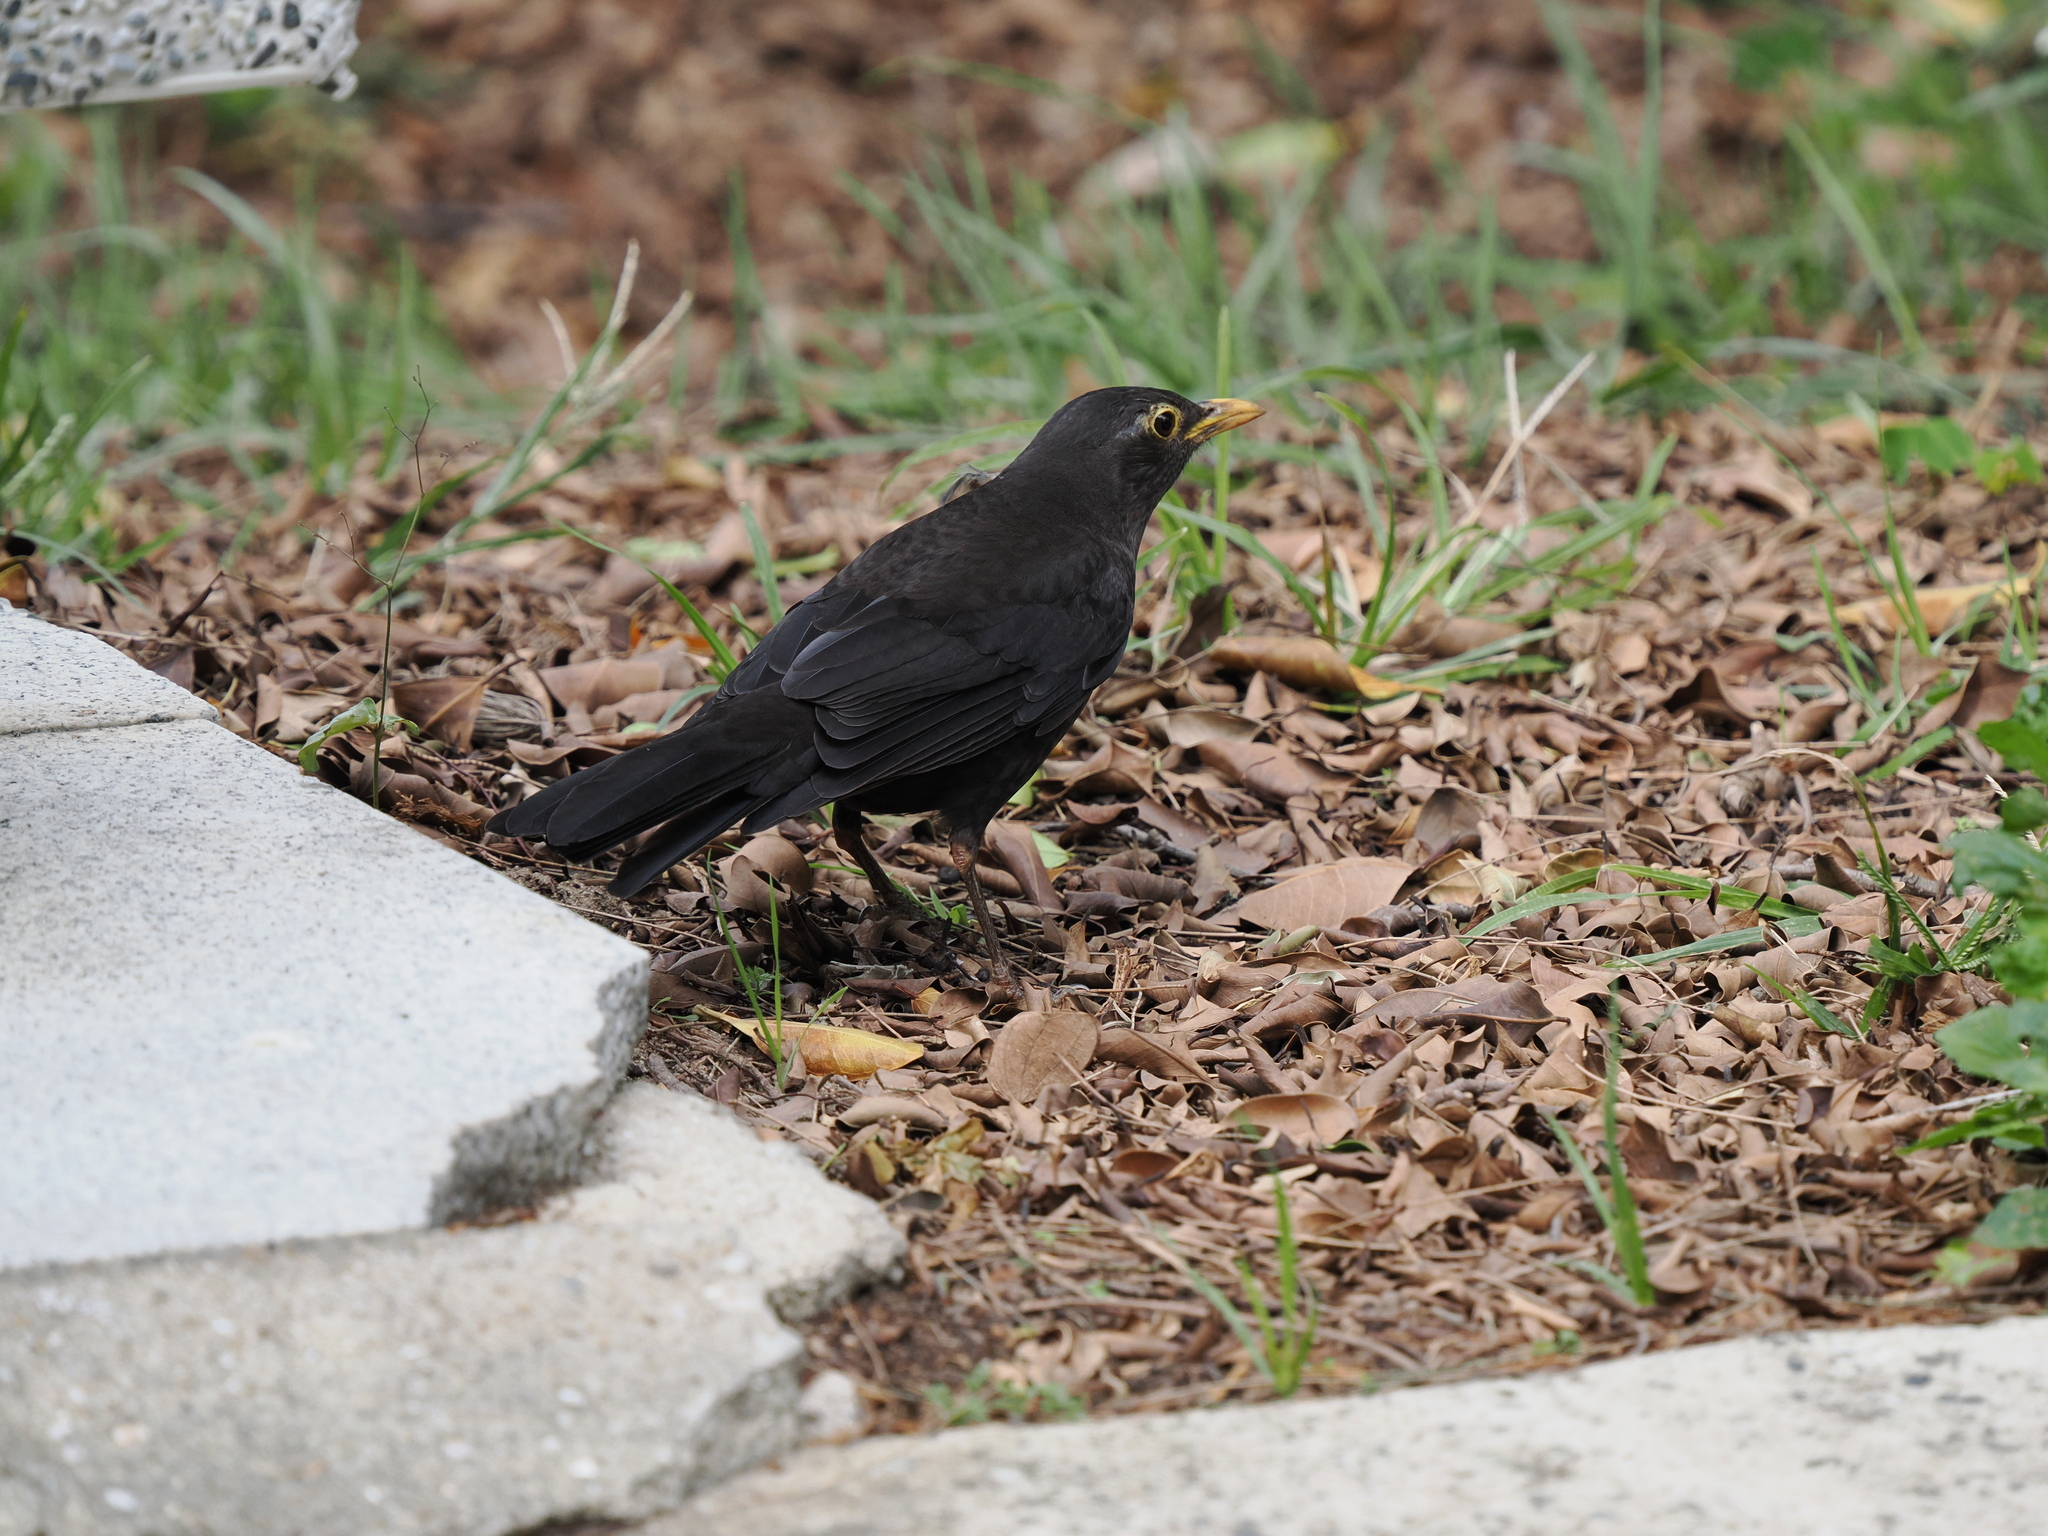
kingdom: Animalia
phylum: Chordata
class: Aves
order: Passeriformes
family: Turdidae
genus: Turdus
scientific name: Turdus mandarinus
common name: Chinese blackbird
